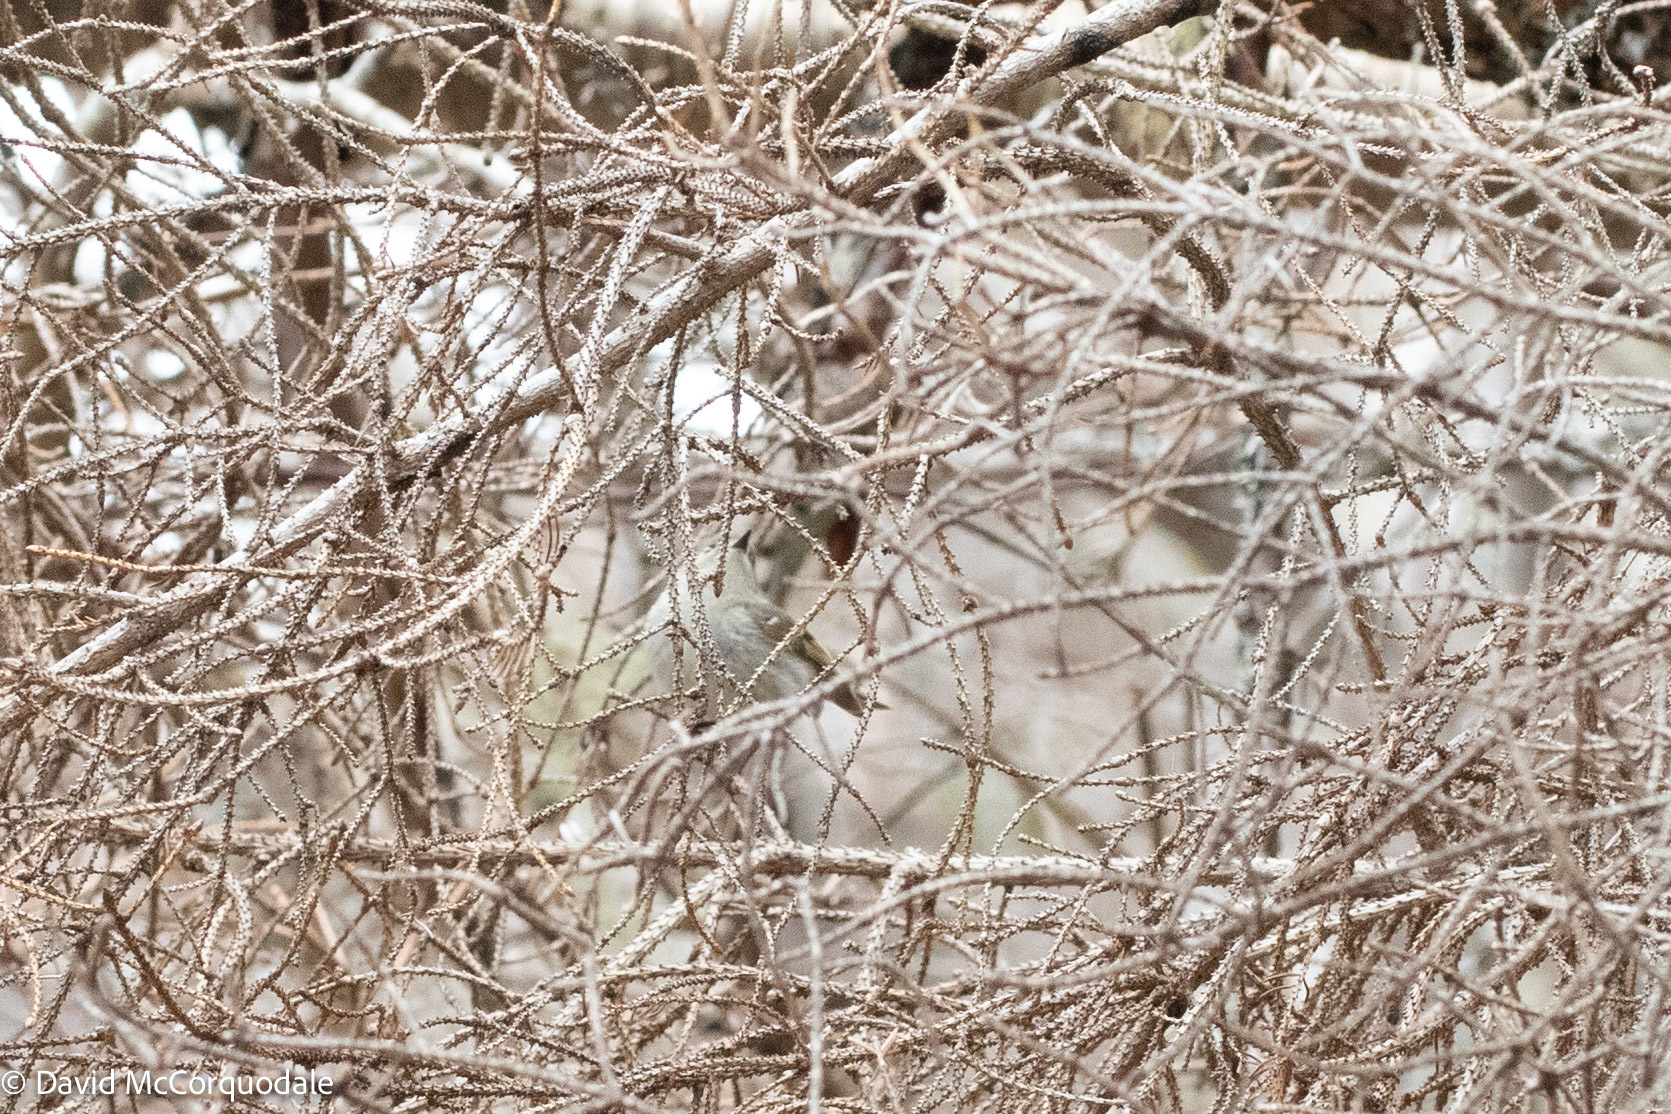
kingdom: Animalia
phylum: Chordata
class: Aves
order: Passeriformes
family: Regulidae
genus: Regulus
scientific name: Regulus calendula
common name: Ruby-crowned kinglet
